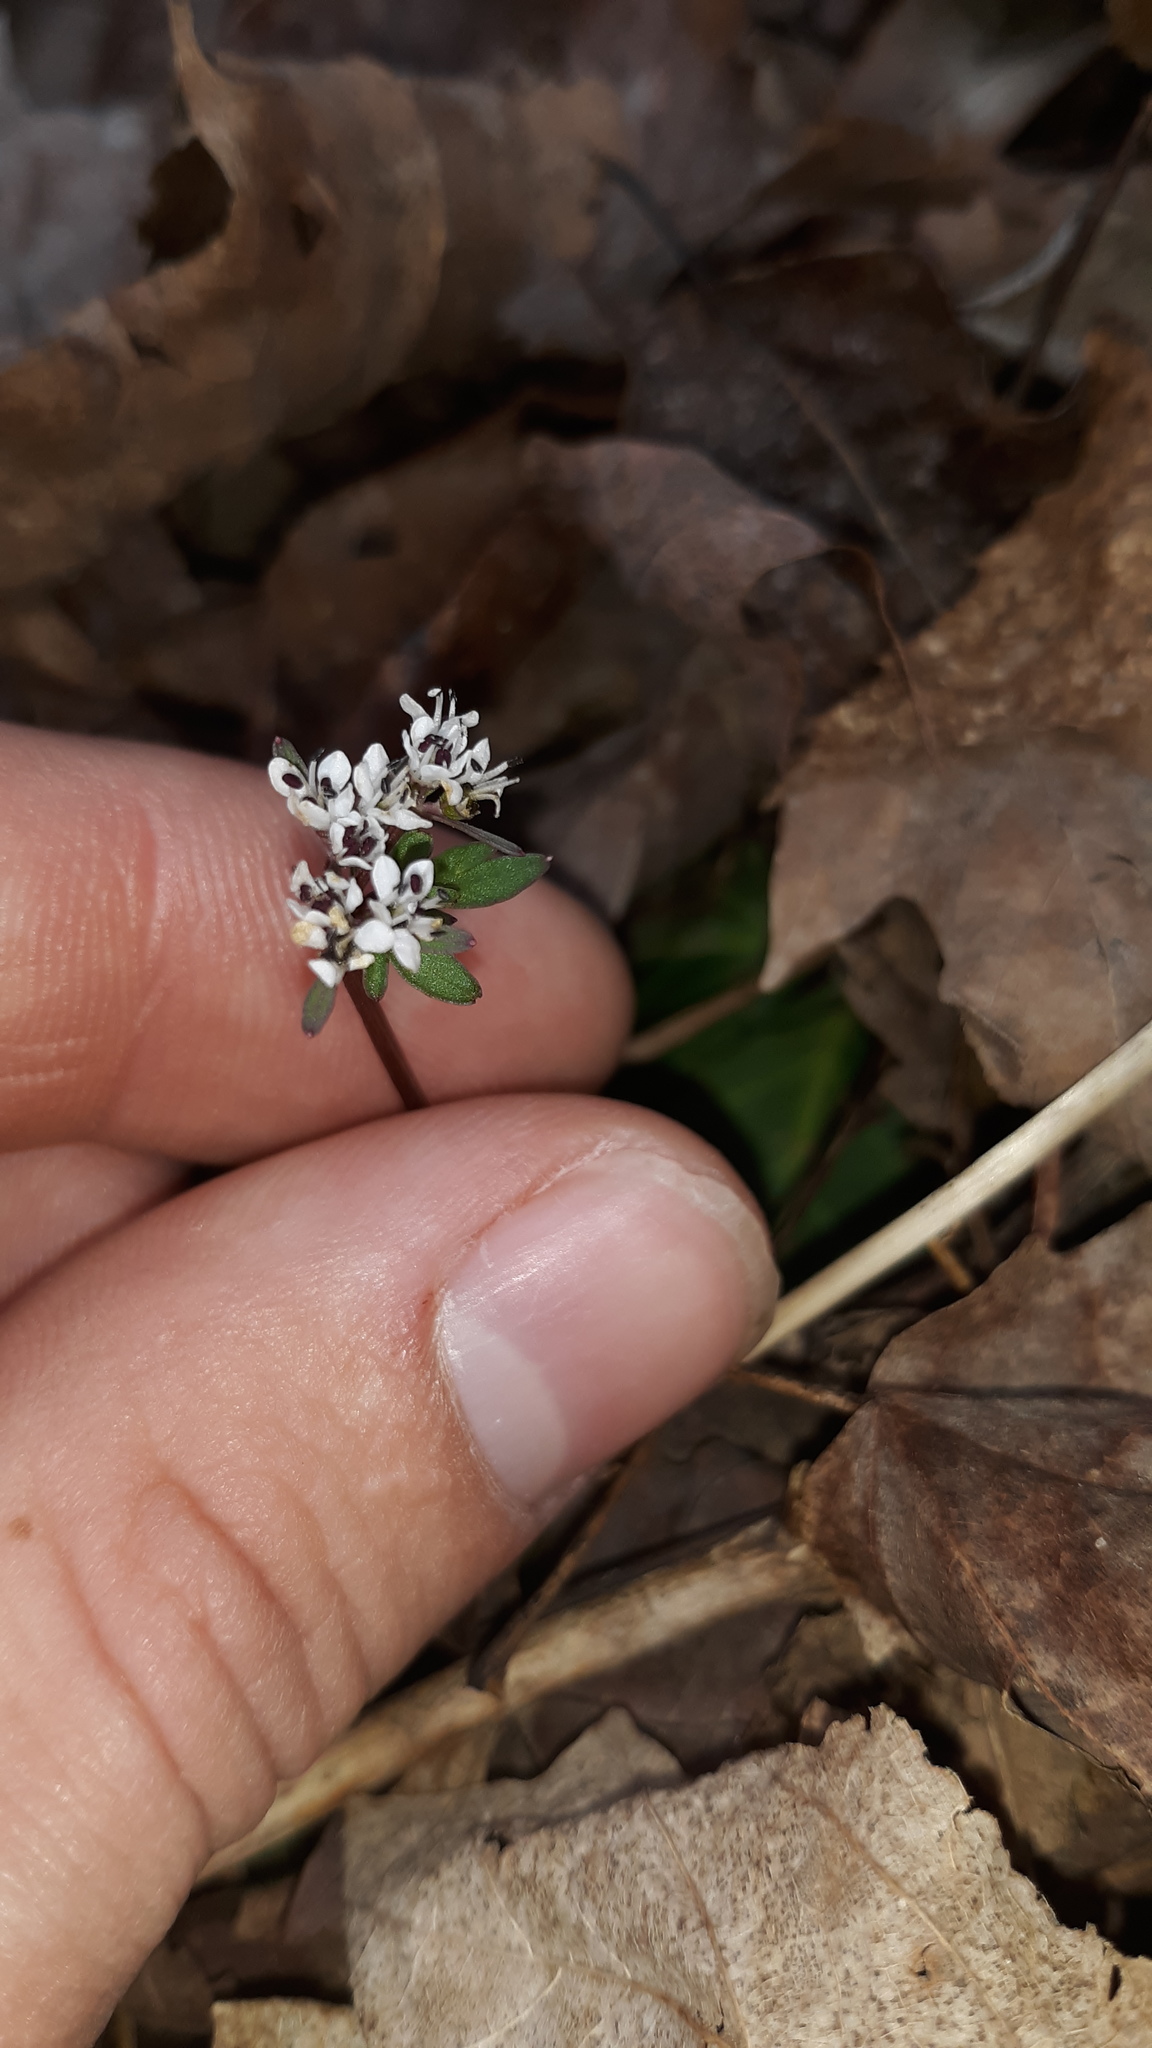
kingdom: Plantae
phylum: Tracheophyta
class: Magnoliopsida
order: Apiales
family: Apiaceae
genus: Erigenia
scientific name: Erigenia bulbosa
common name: Pepper-and-salt
